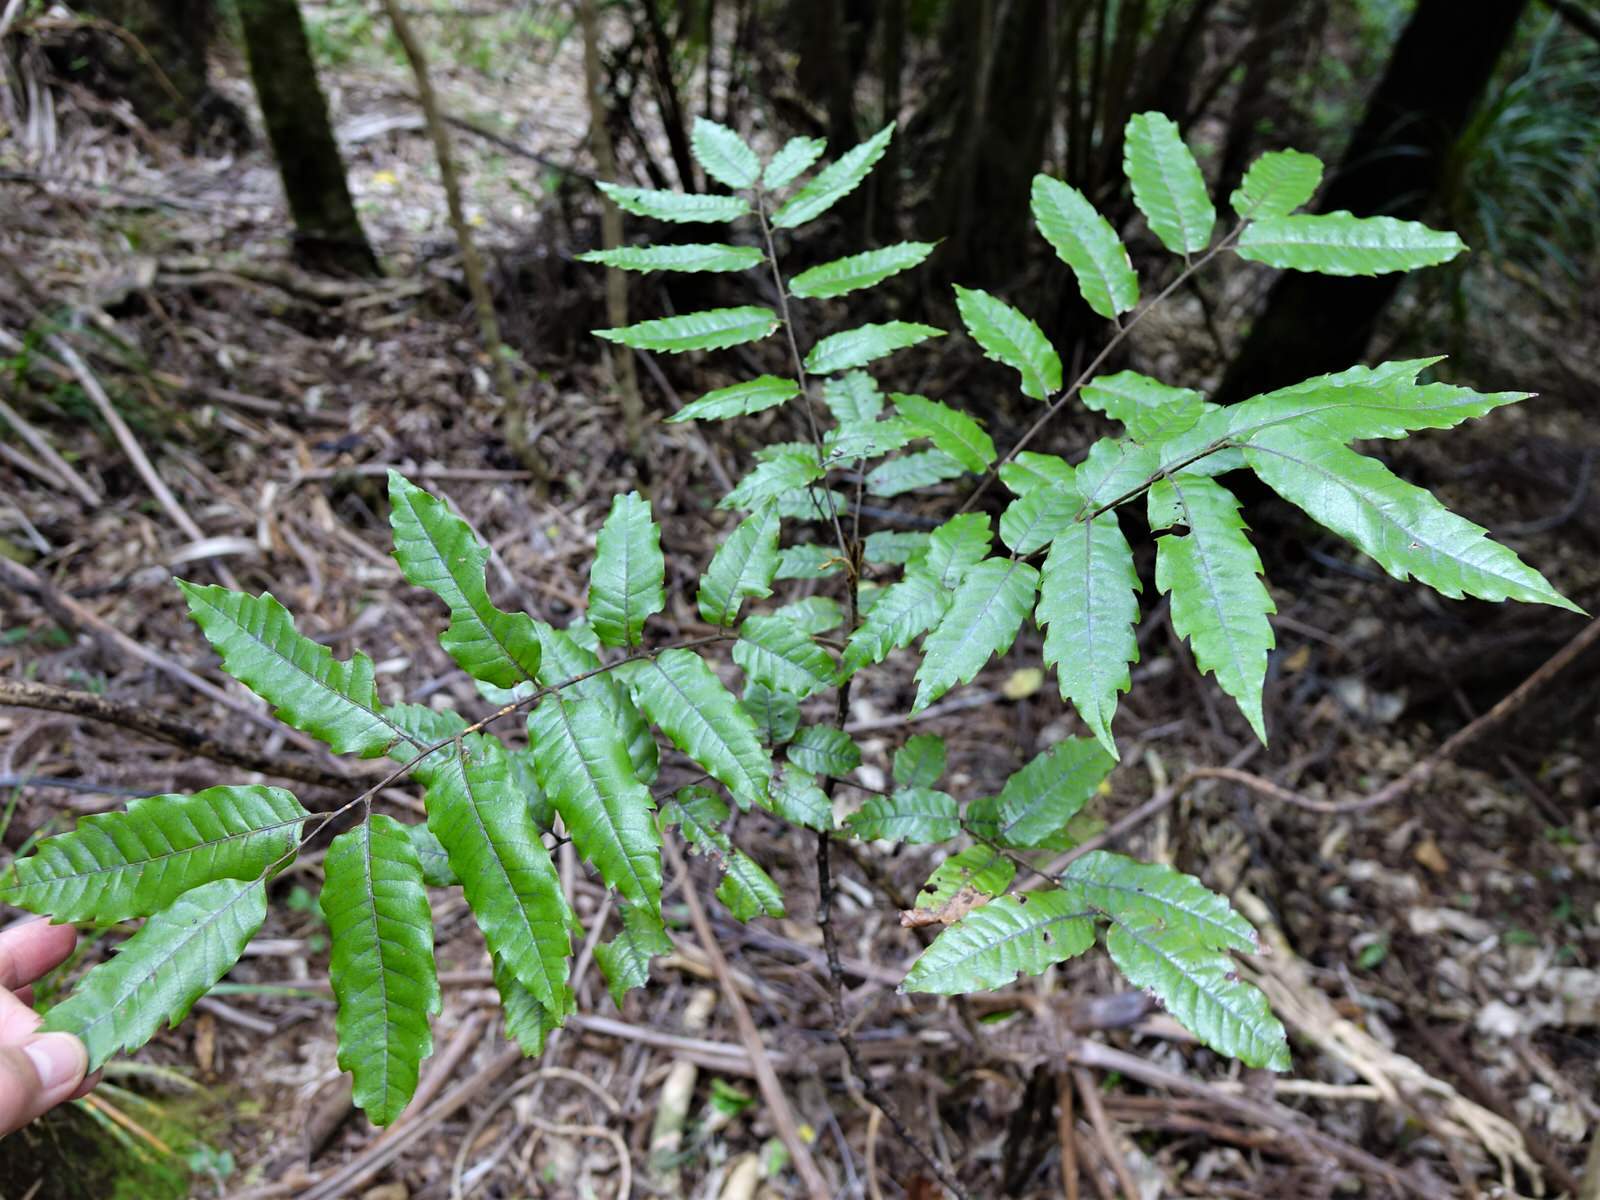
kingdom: Plantae
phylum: Tracheophyta
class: Magnoliopsida
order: Sapindales
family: Sapindaceae
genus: Alectryon
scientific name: Alectryon excelsus
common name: Three kings titoki
